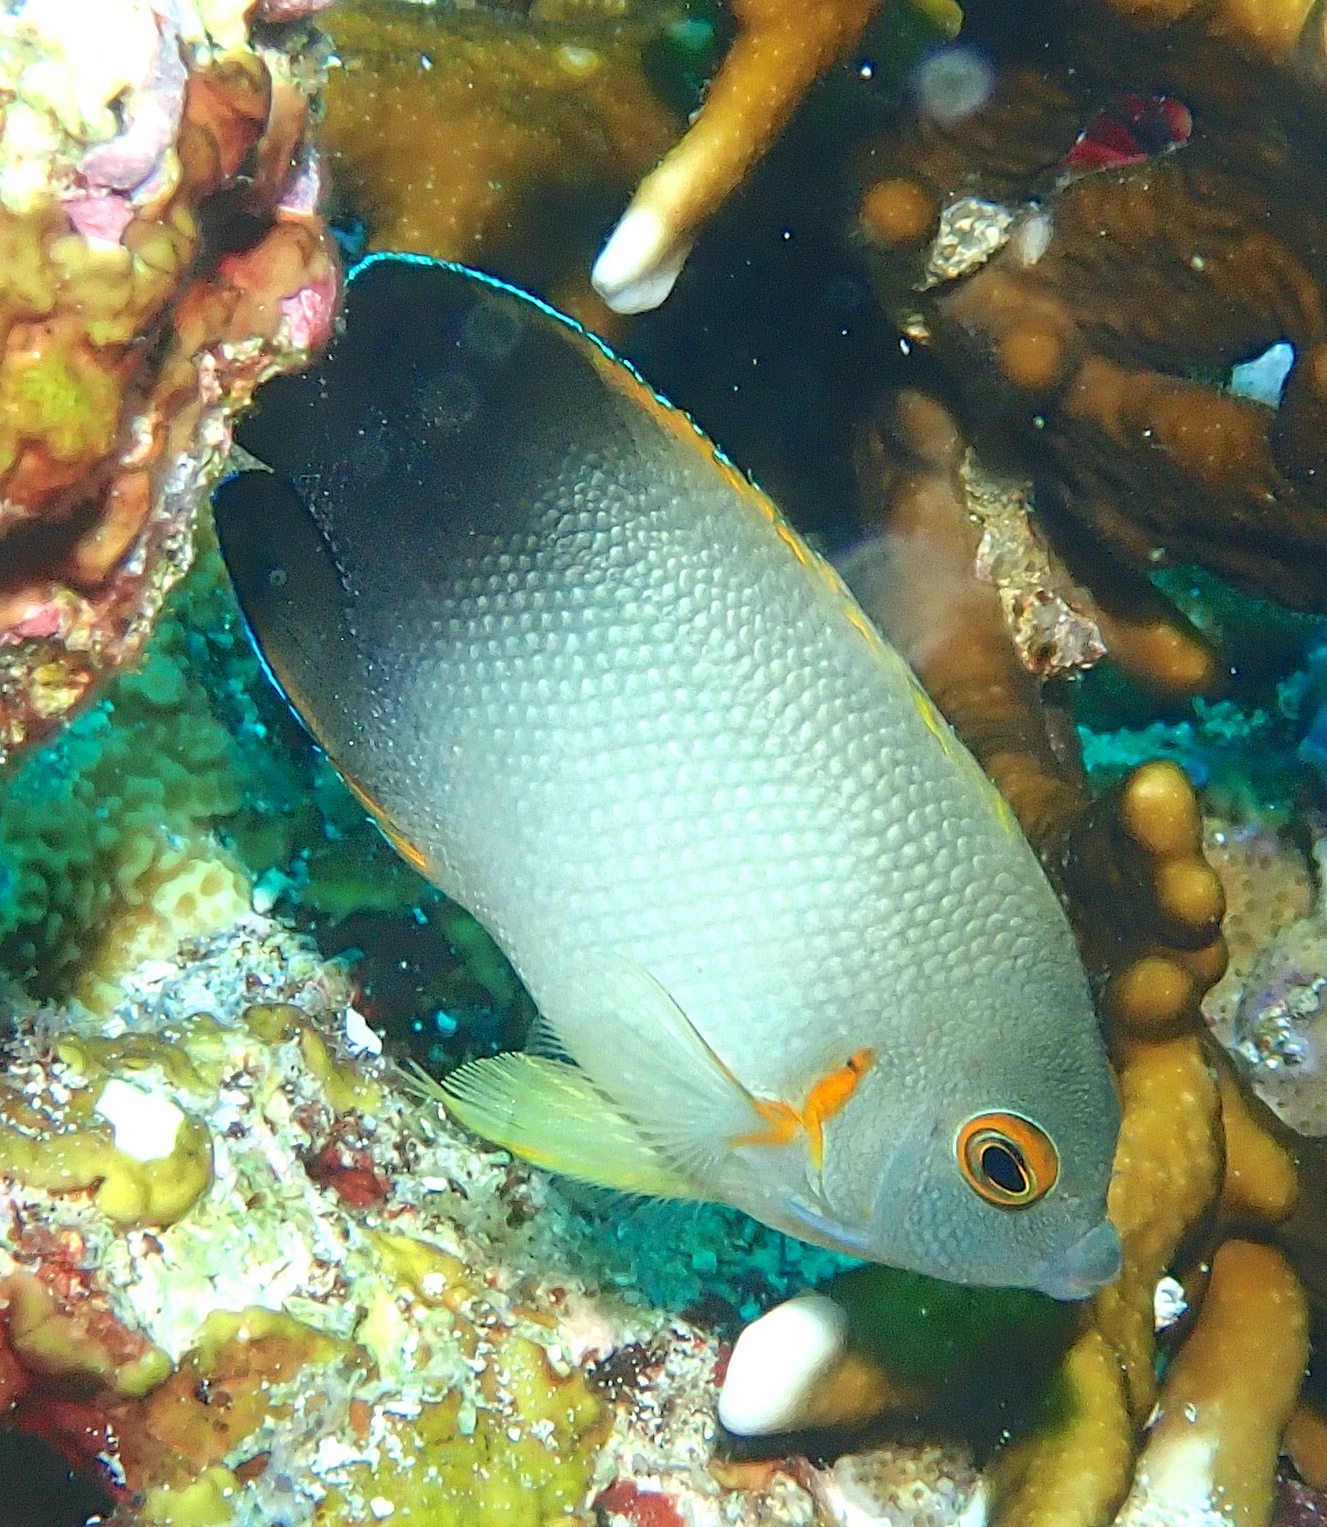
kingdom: Animalia
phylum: Chordata
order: Perciformes
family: Pomacanthidae
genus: Centropyge
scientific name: Centropyge vrolikii
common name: Pearlscale angelfish
